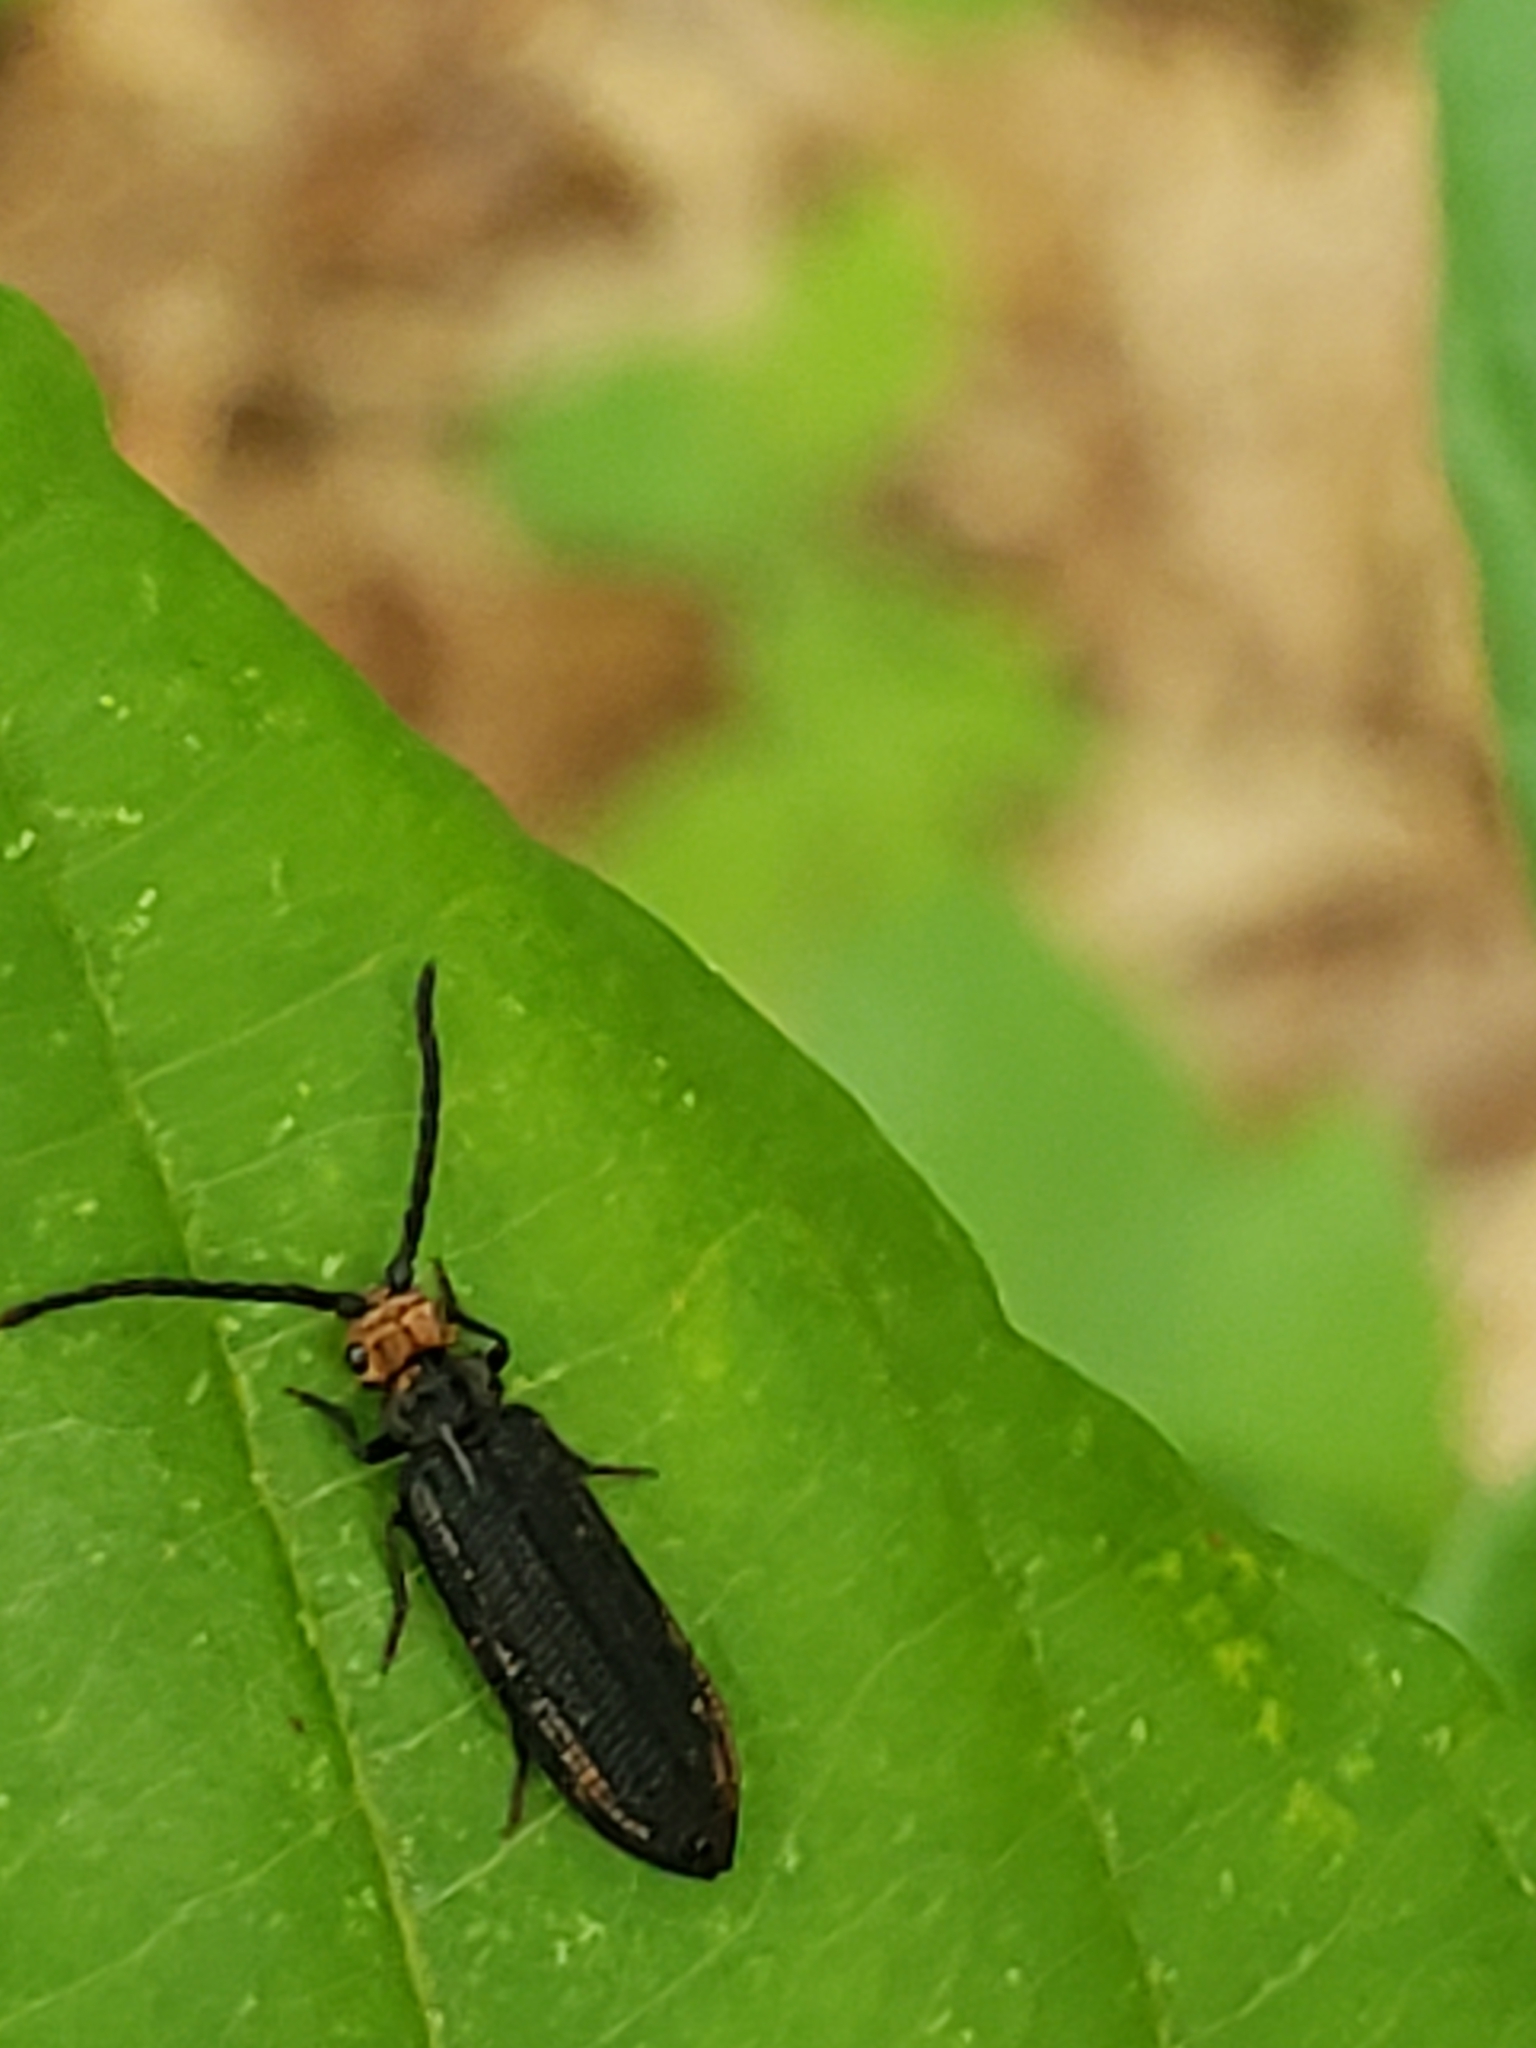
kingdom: Animalia
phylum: Arthropoda
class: Insecta
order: Coleoptera
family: Cupedidae
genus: Cupes
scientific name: Cupes capitata
